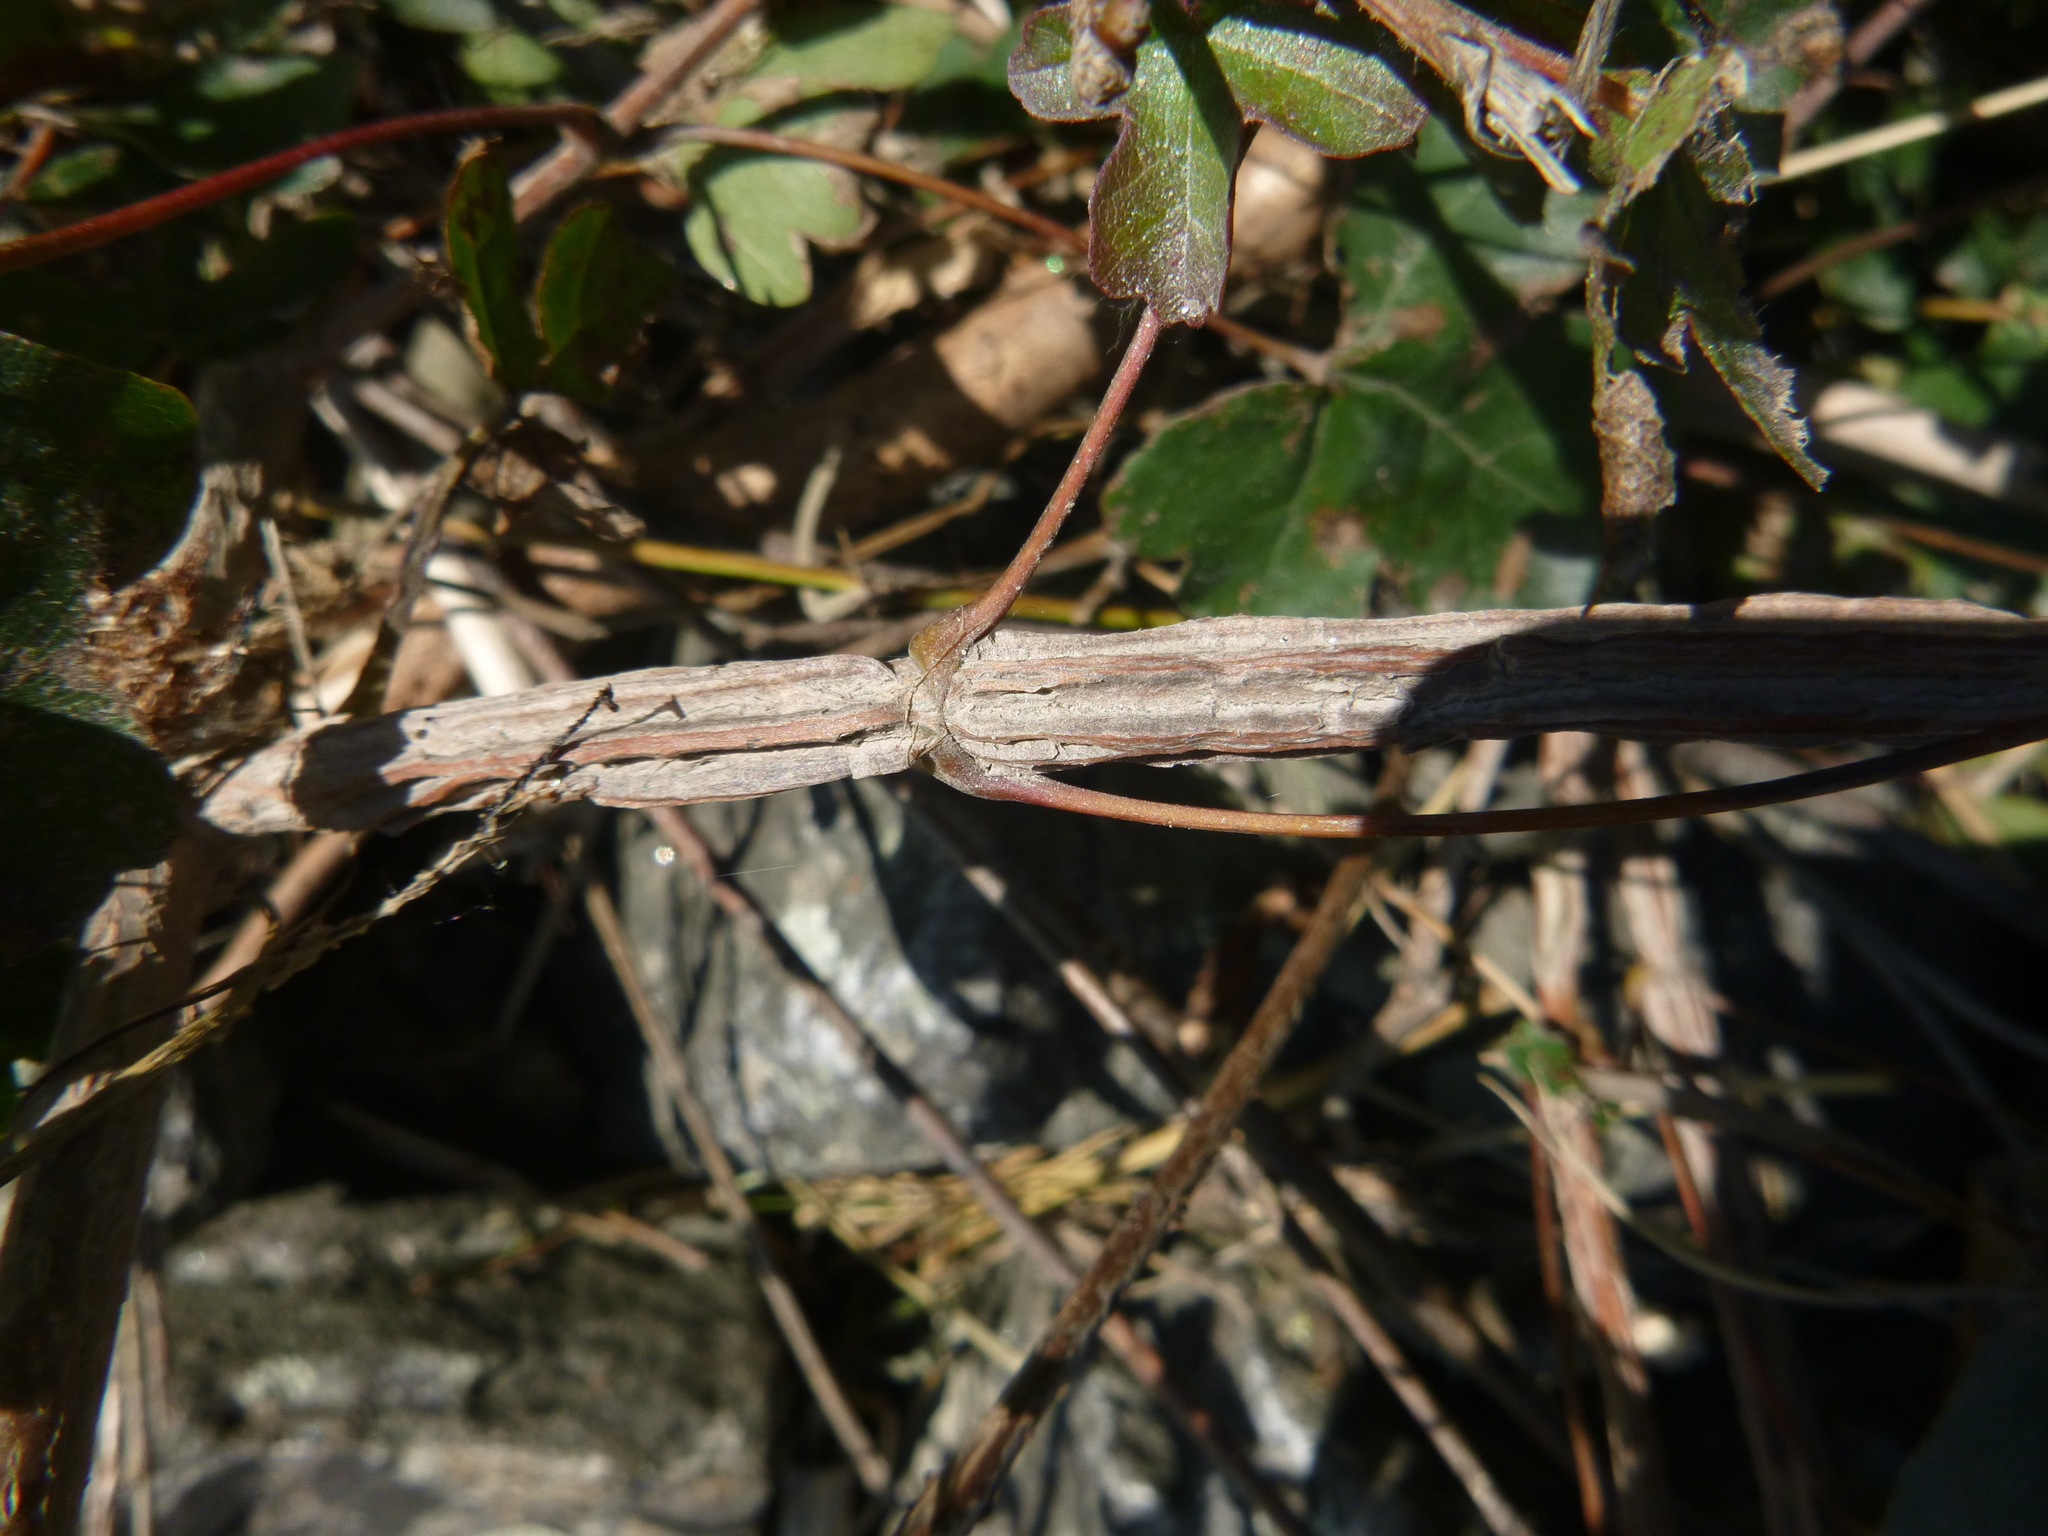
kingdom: Plantae
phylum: Tracheophyta
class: Magnoliopsida
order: Sapindales
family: Sapindaceae
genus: Acer
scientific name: Acer campestre
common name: Field maple
